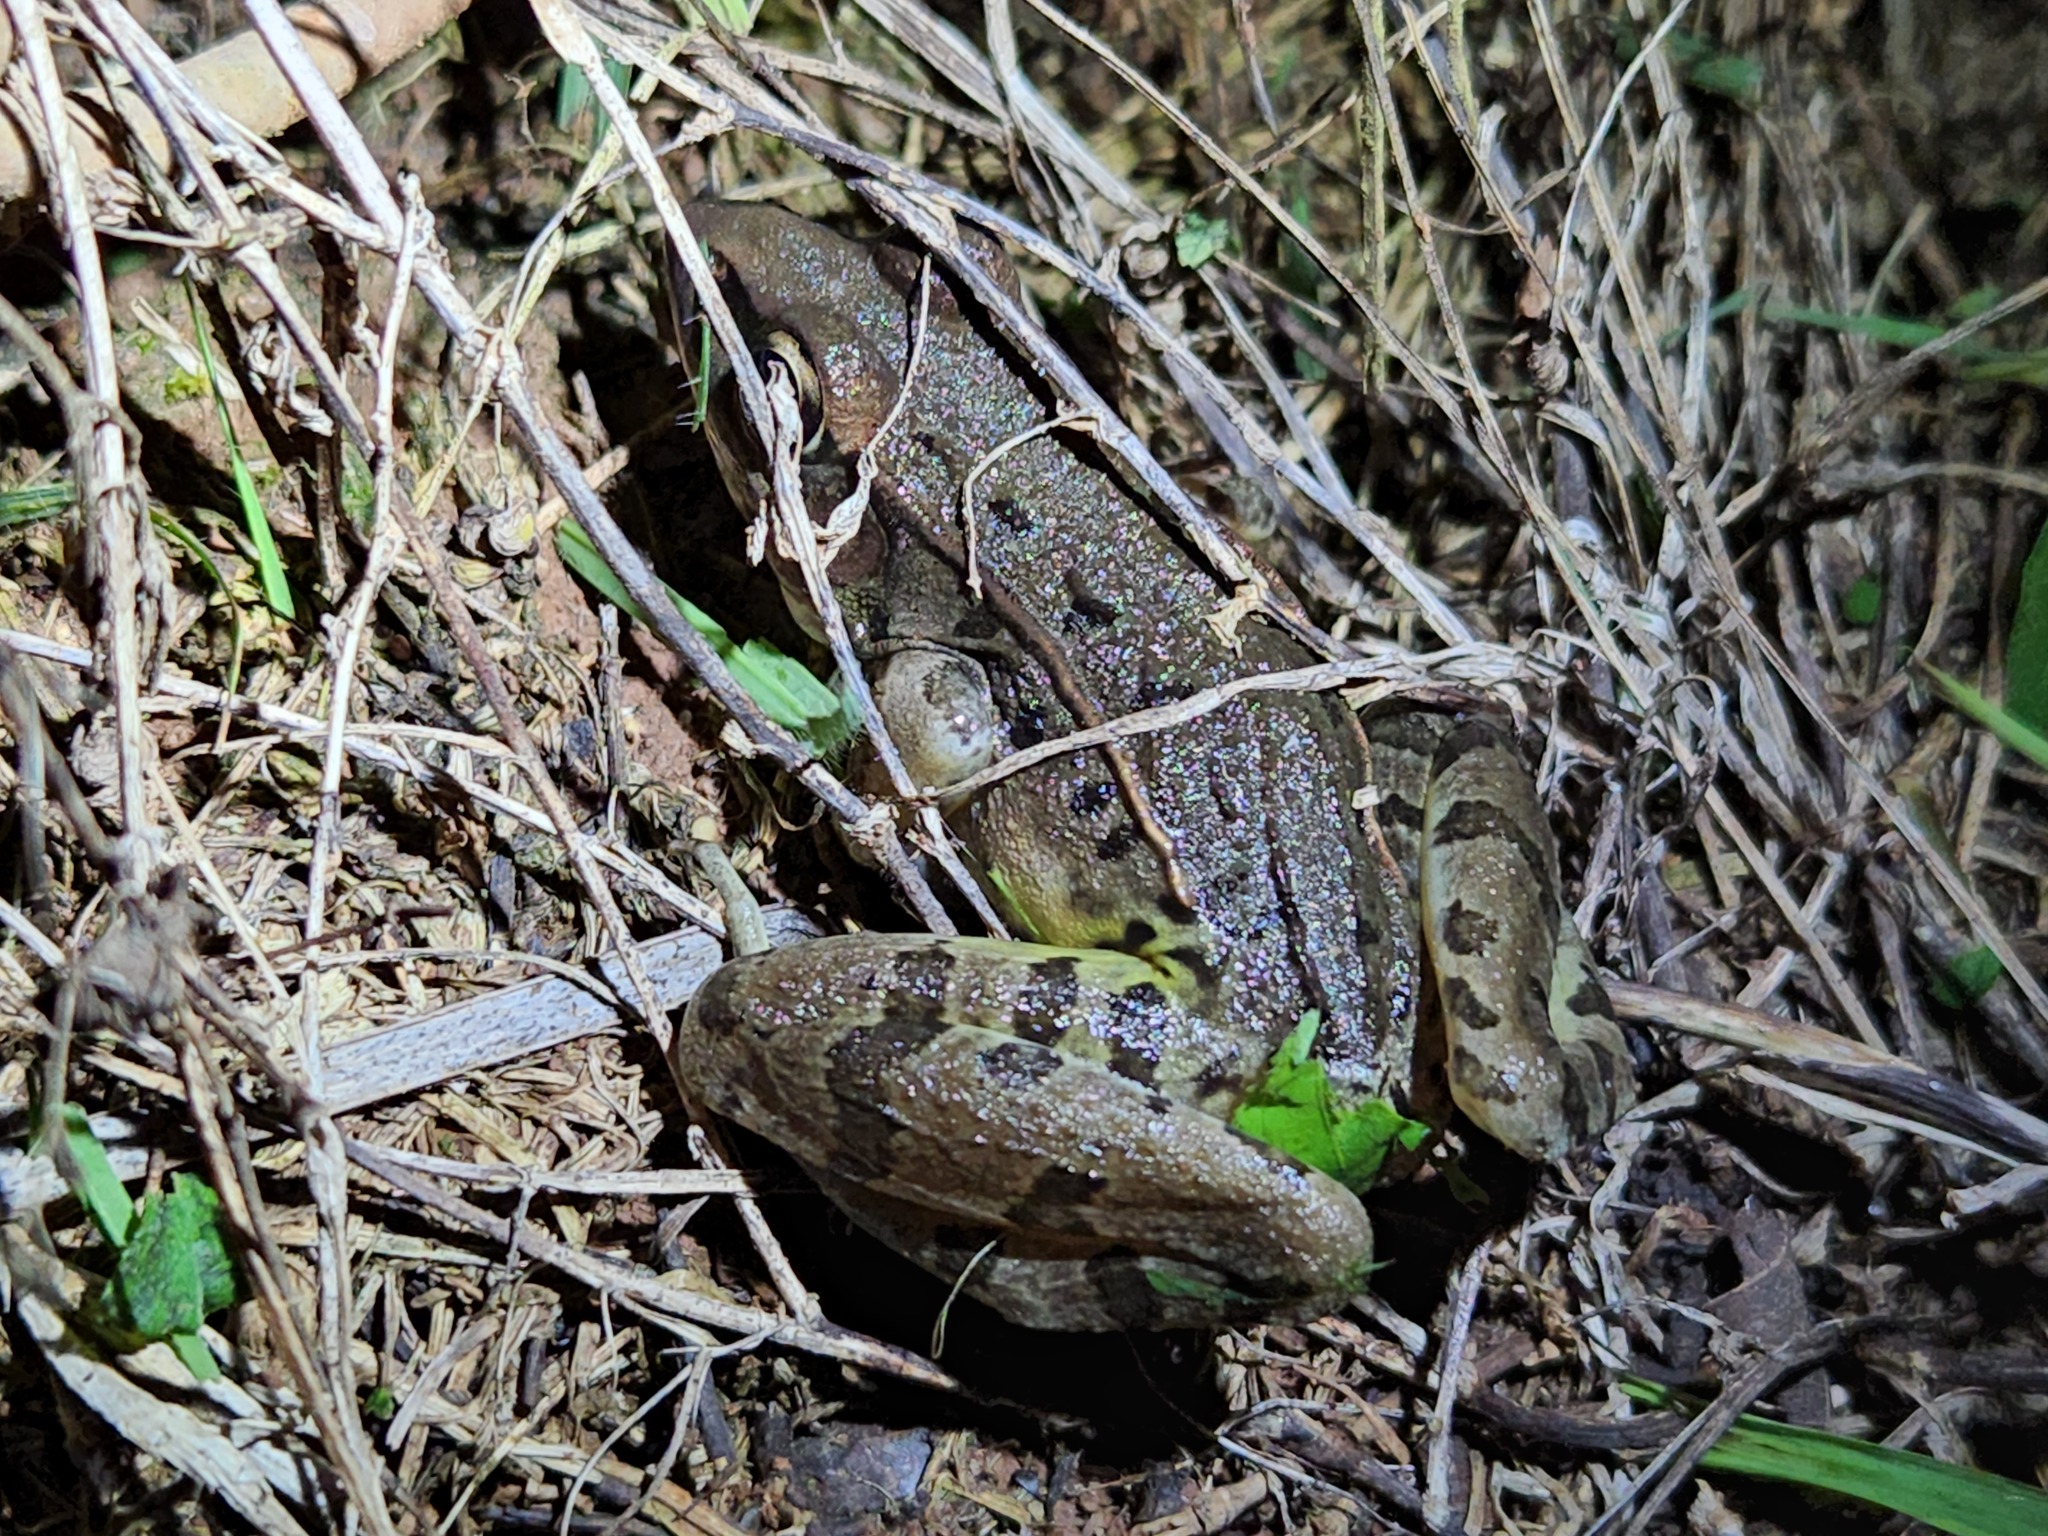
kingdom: Animalia
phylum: Chordata
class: Amphibia
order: Anura
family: Ranidae
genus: Lithobates
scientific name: Lithobates sphenocephalus
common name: Southern leopard frog
